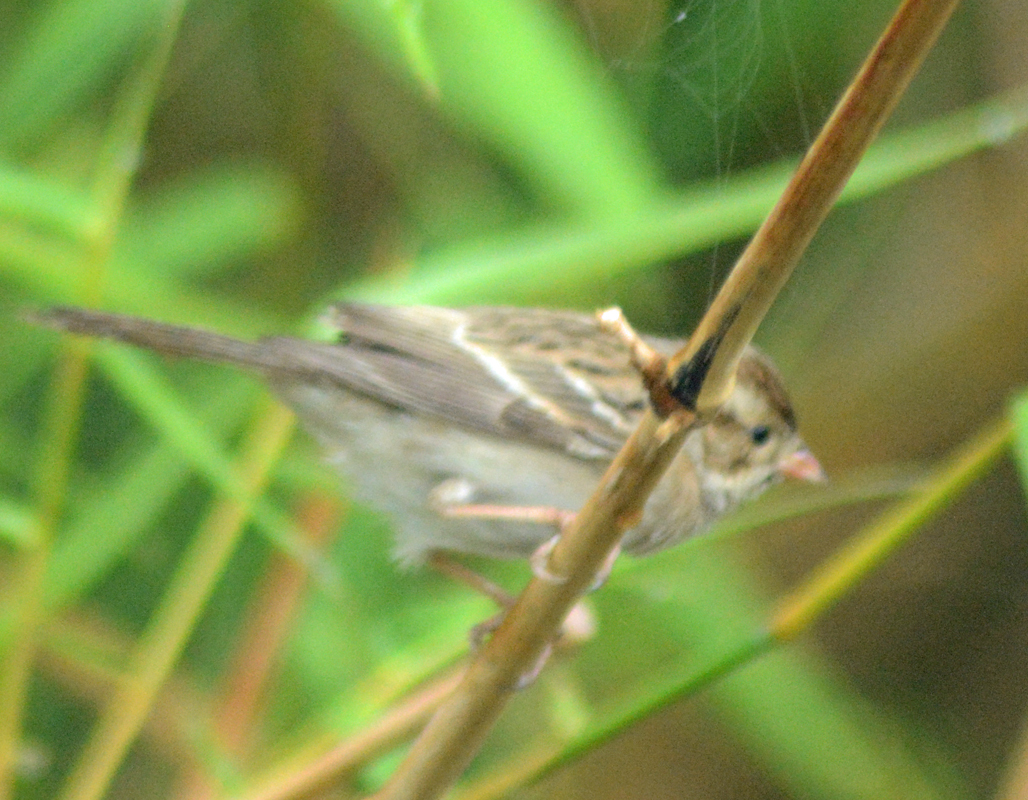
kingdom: Animalia
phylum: Chordata
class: Aves
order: Passeriformes
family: Passerellidae
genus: Spizella
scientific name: Spizella pallida
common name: Clay-colored sparrow
